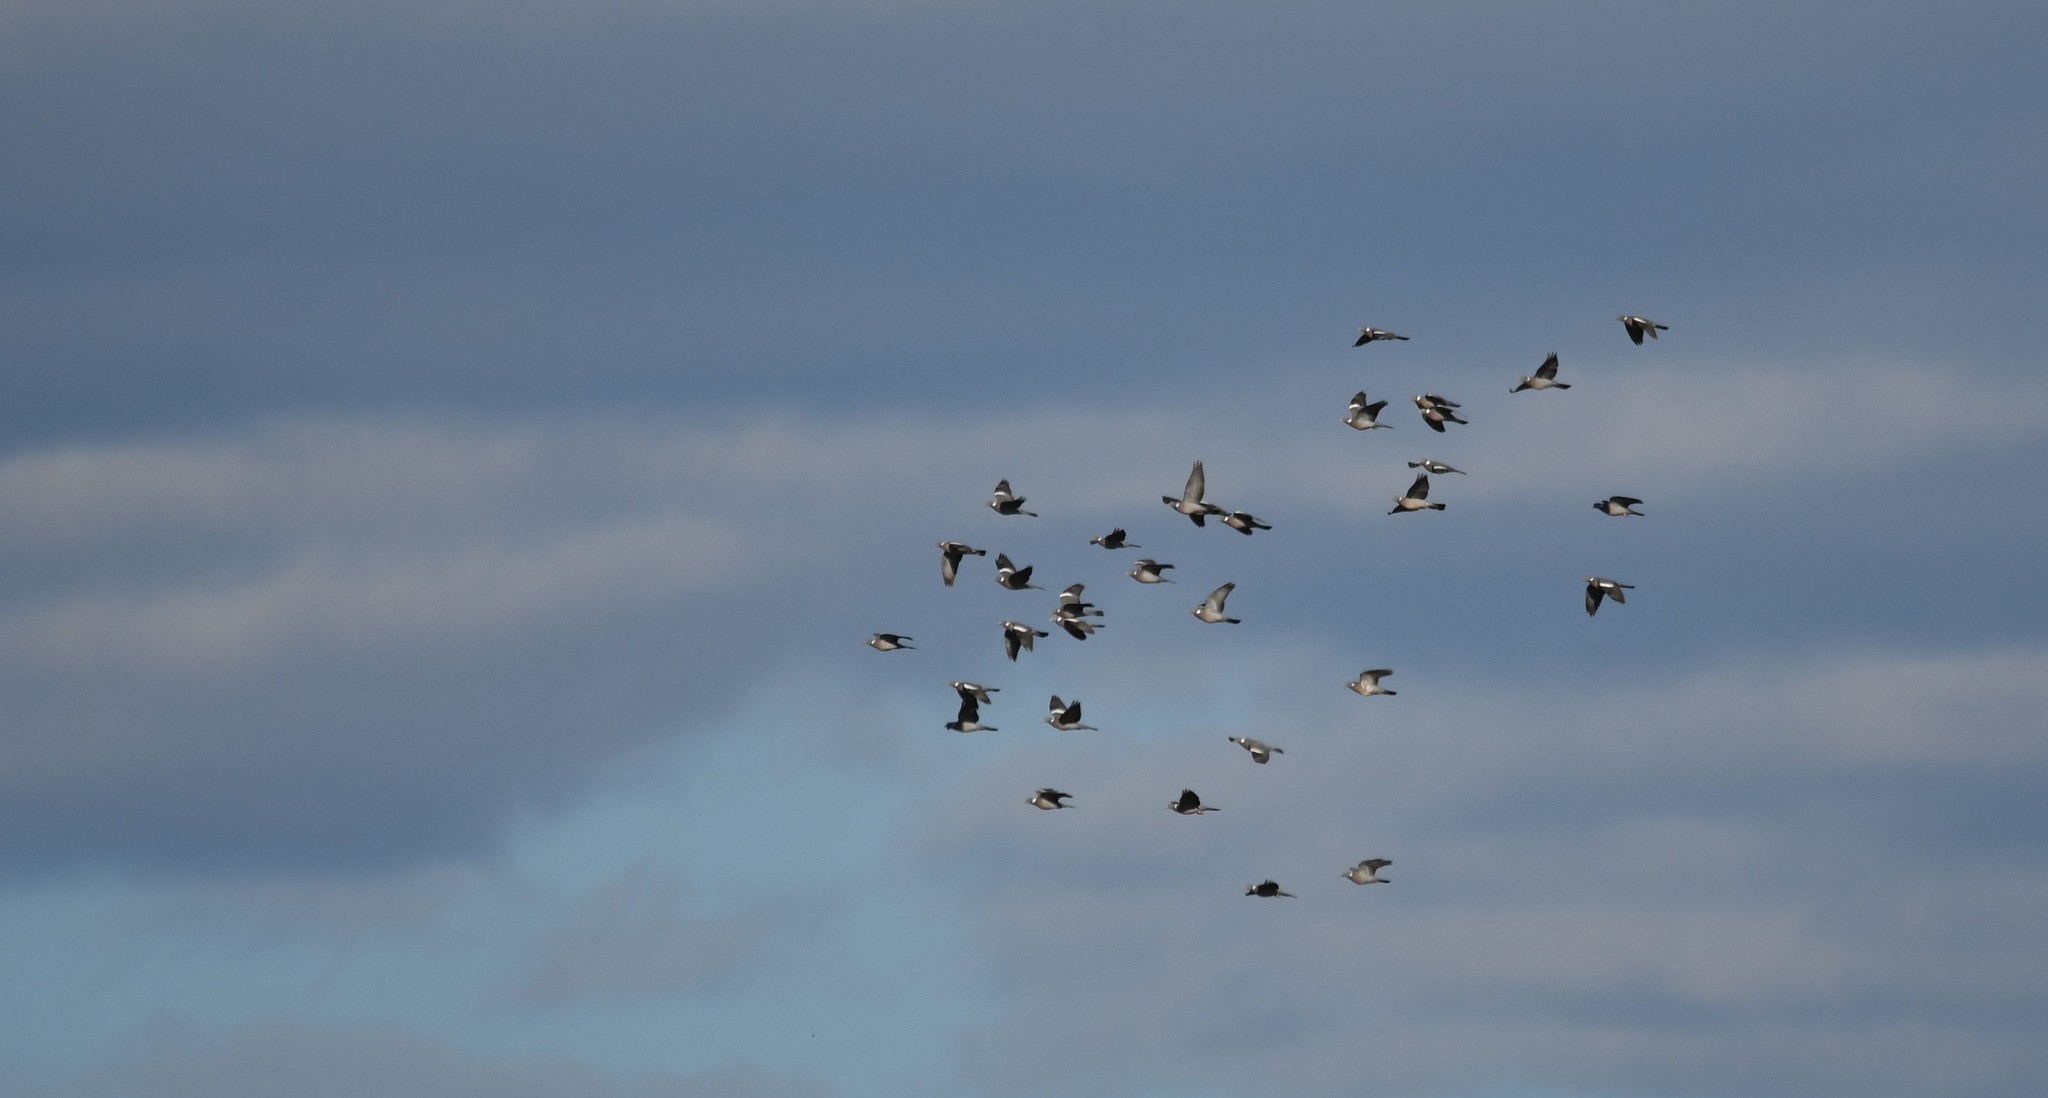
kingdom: Animalia
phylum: Chordata
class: Aves
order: Columbiformes
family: Columbidae
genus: Columba
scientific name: Columba palumbus
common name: Common wood pigeon
